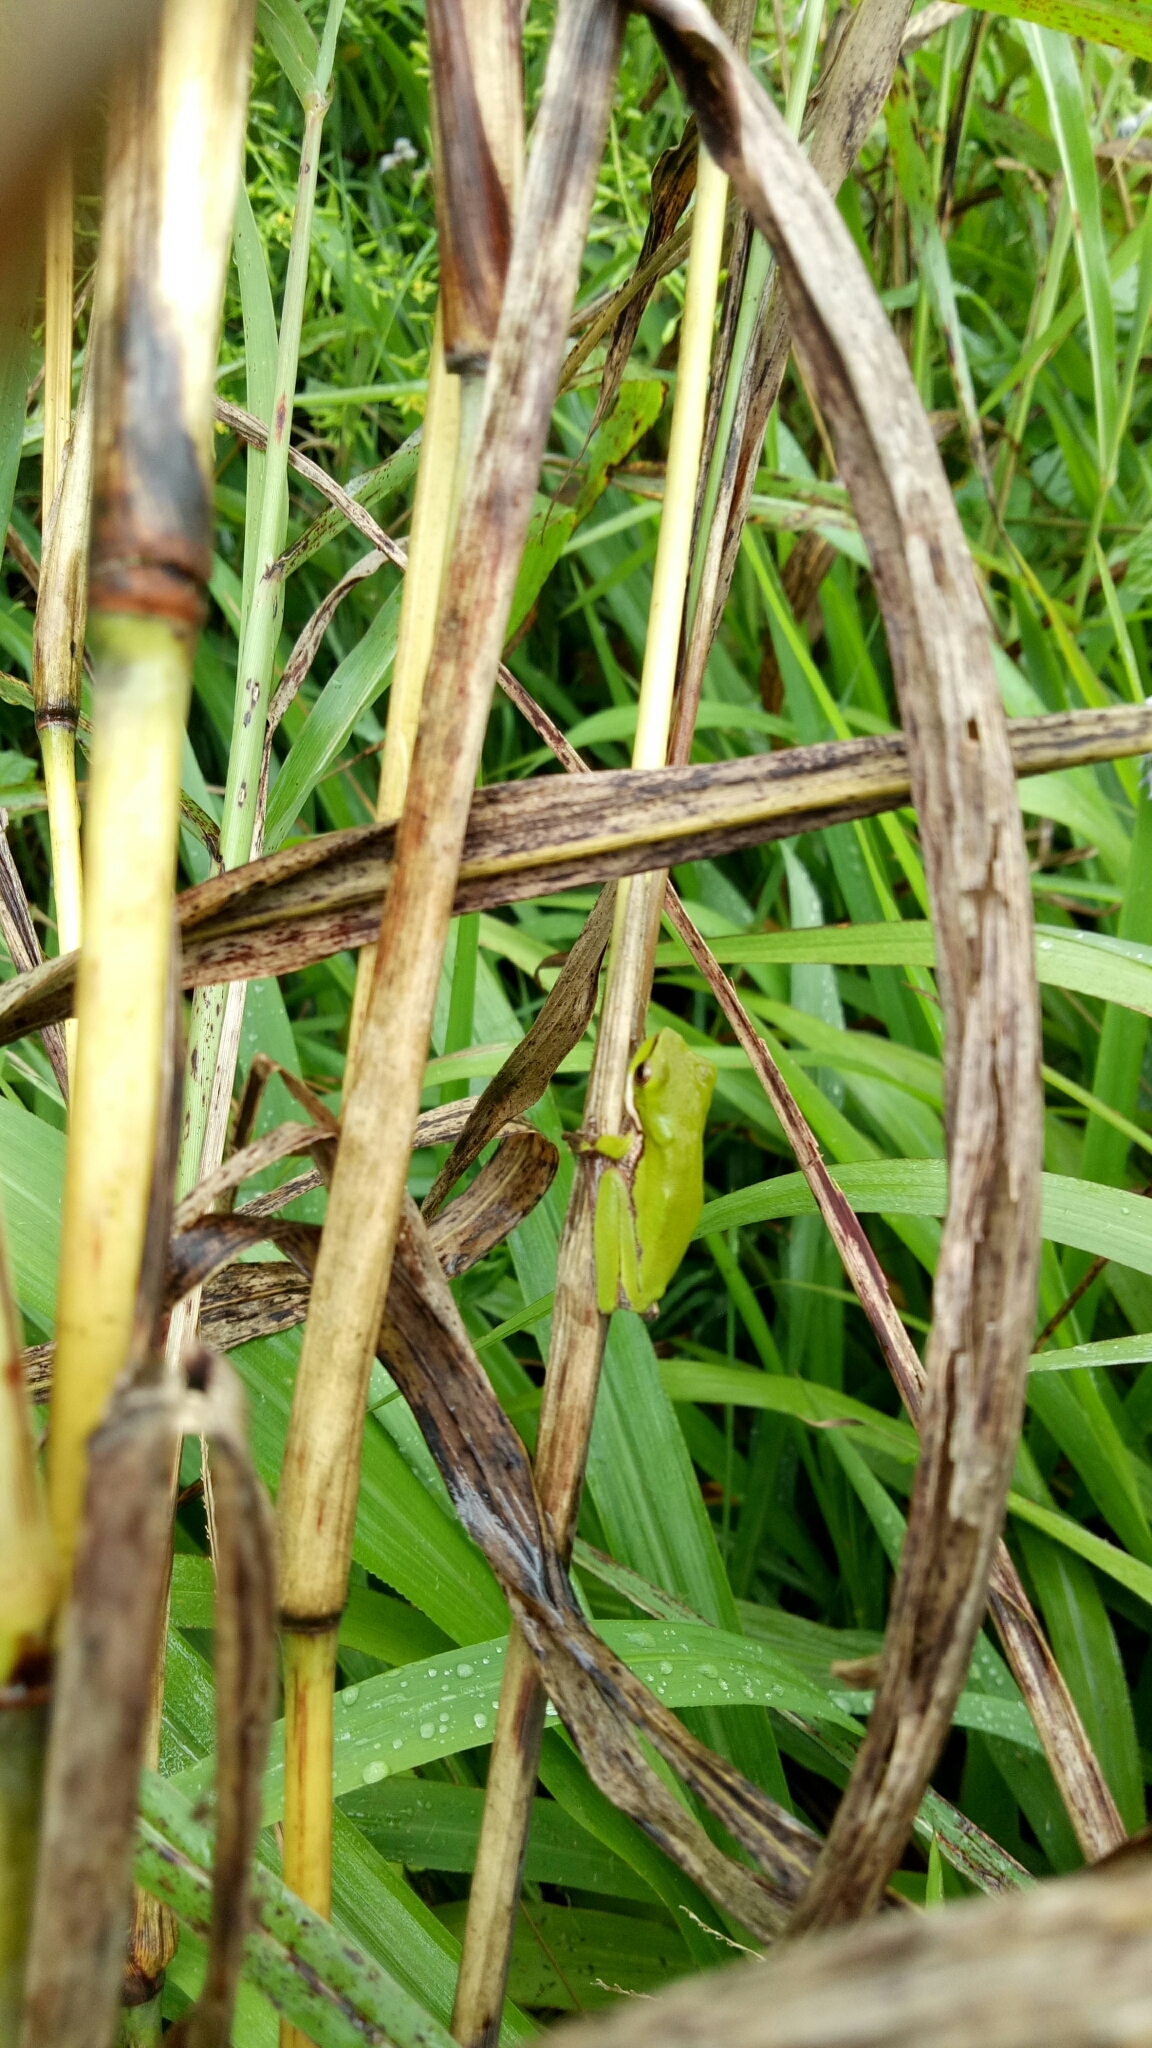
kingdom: Animalia
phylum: Chordata
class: Amphibia
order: Anura
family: Pelodryadidae
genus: Litoria
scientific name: Litoria fallax
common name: Eastern dwarf treefrog
